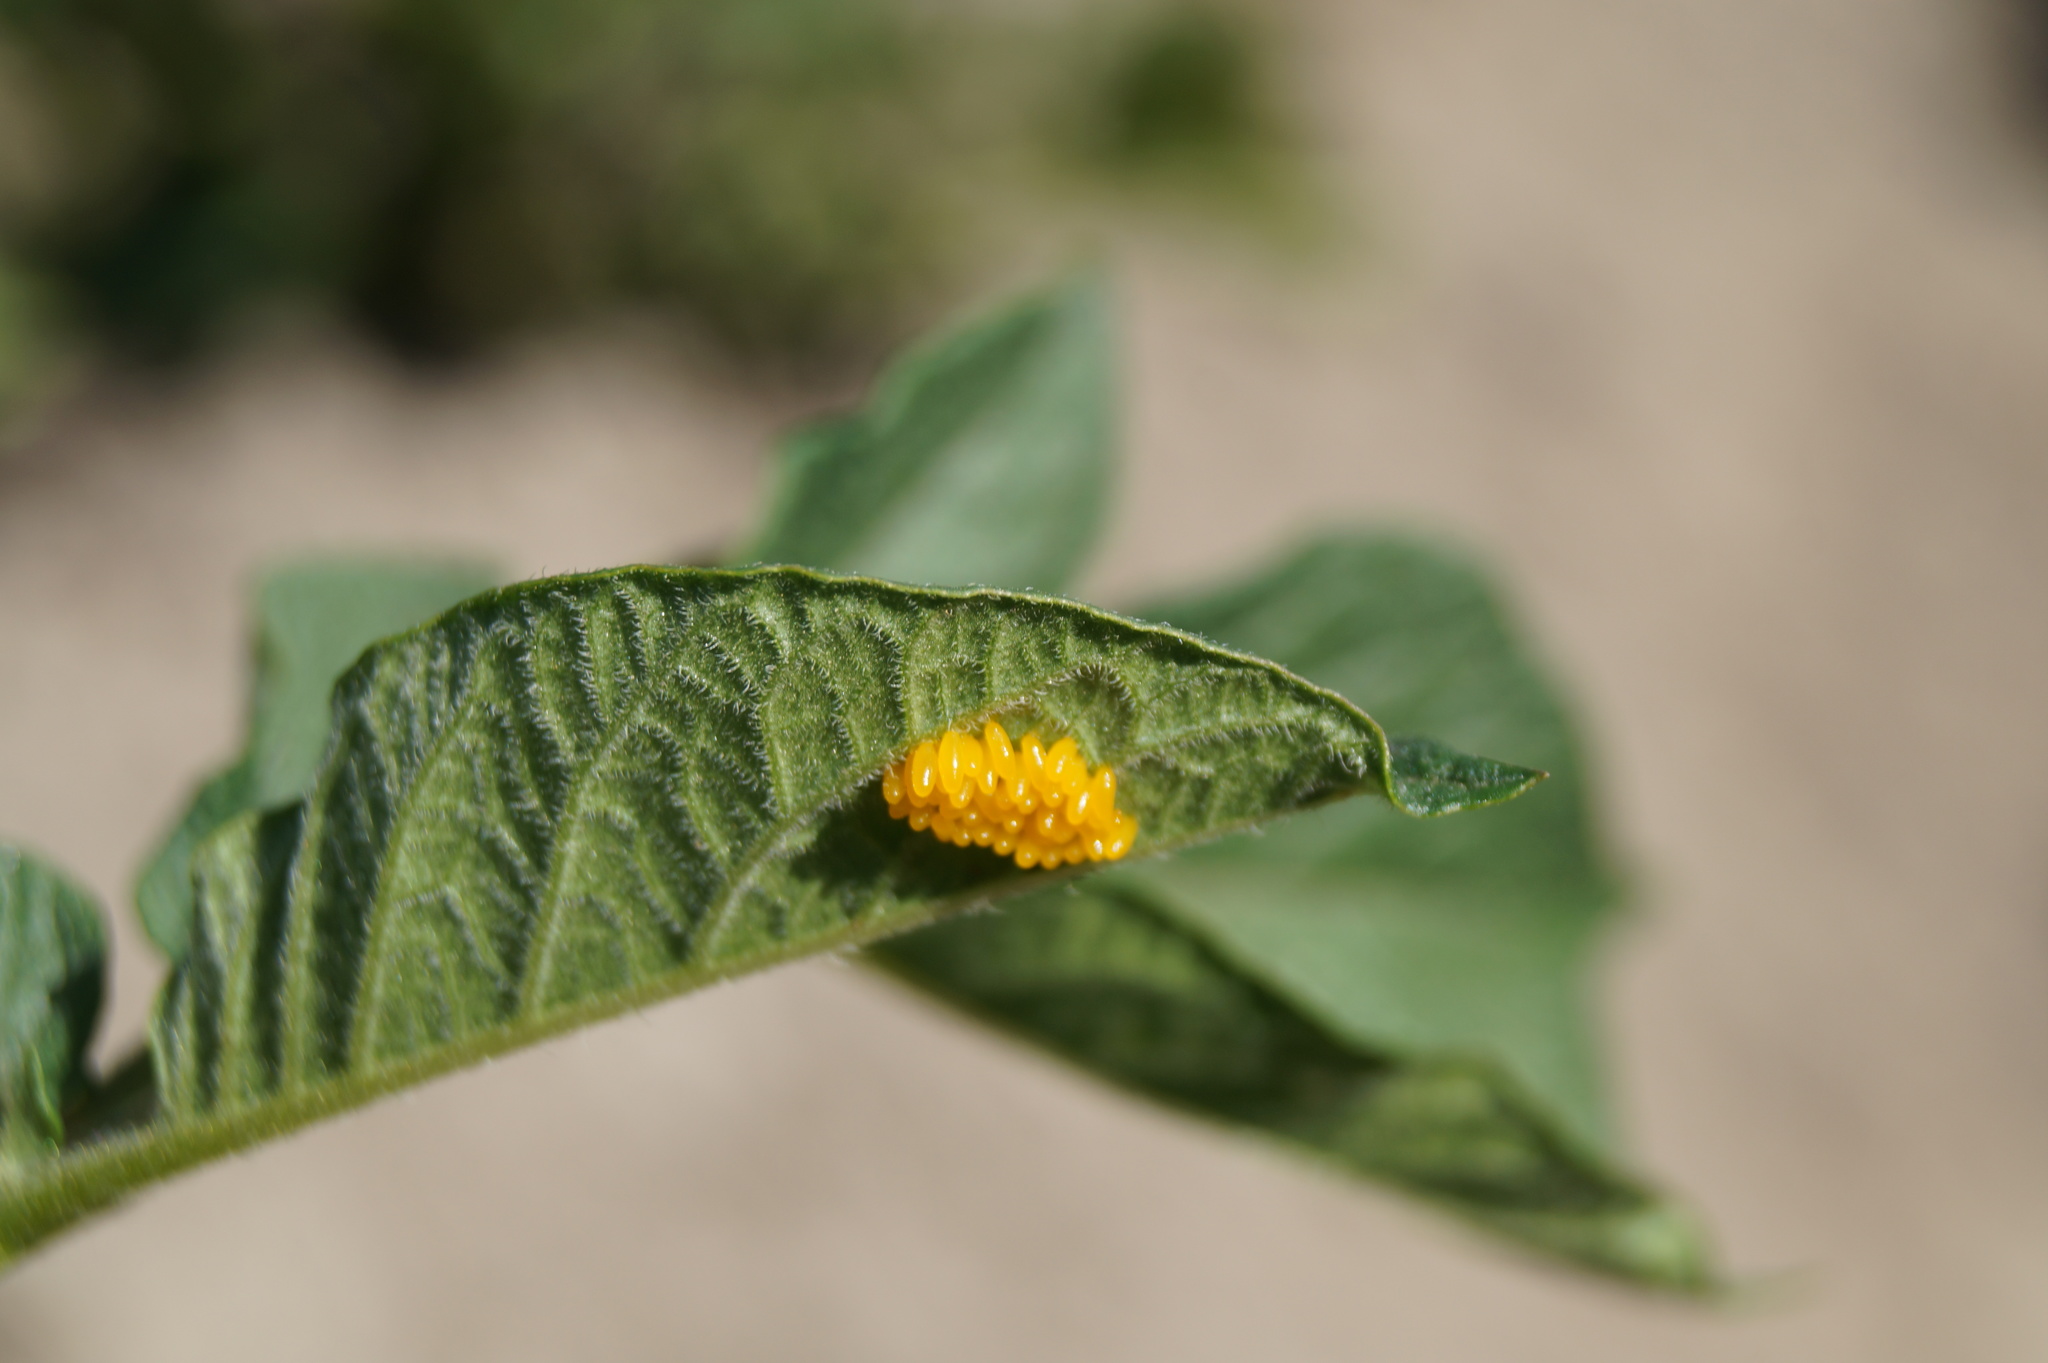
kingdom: Animalia
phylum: Arthropoda
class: Insecta
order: Coleoptera
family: Chrysomelidae
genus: Leptinotarsa
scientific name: Leptinotarsa decemlineata
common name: Colorado potato beetle
